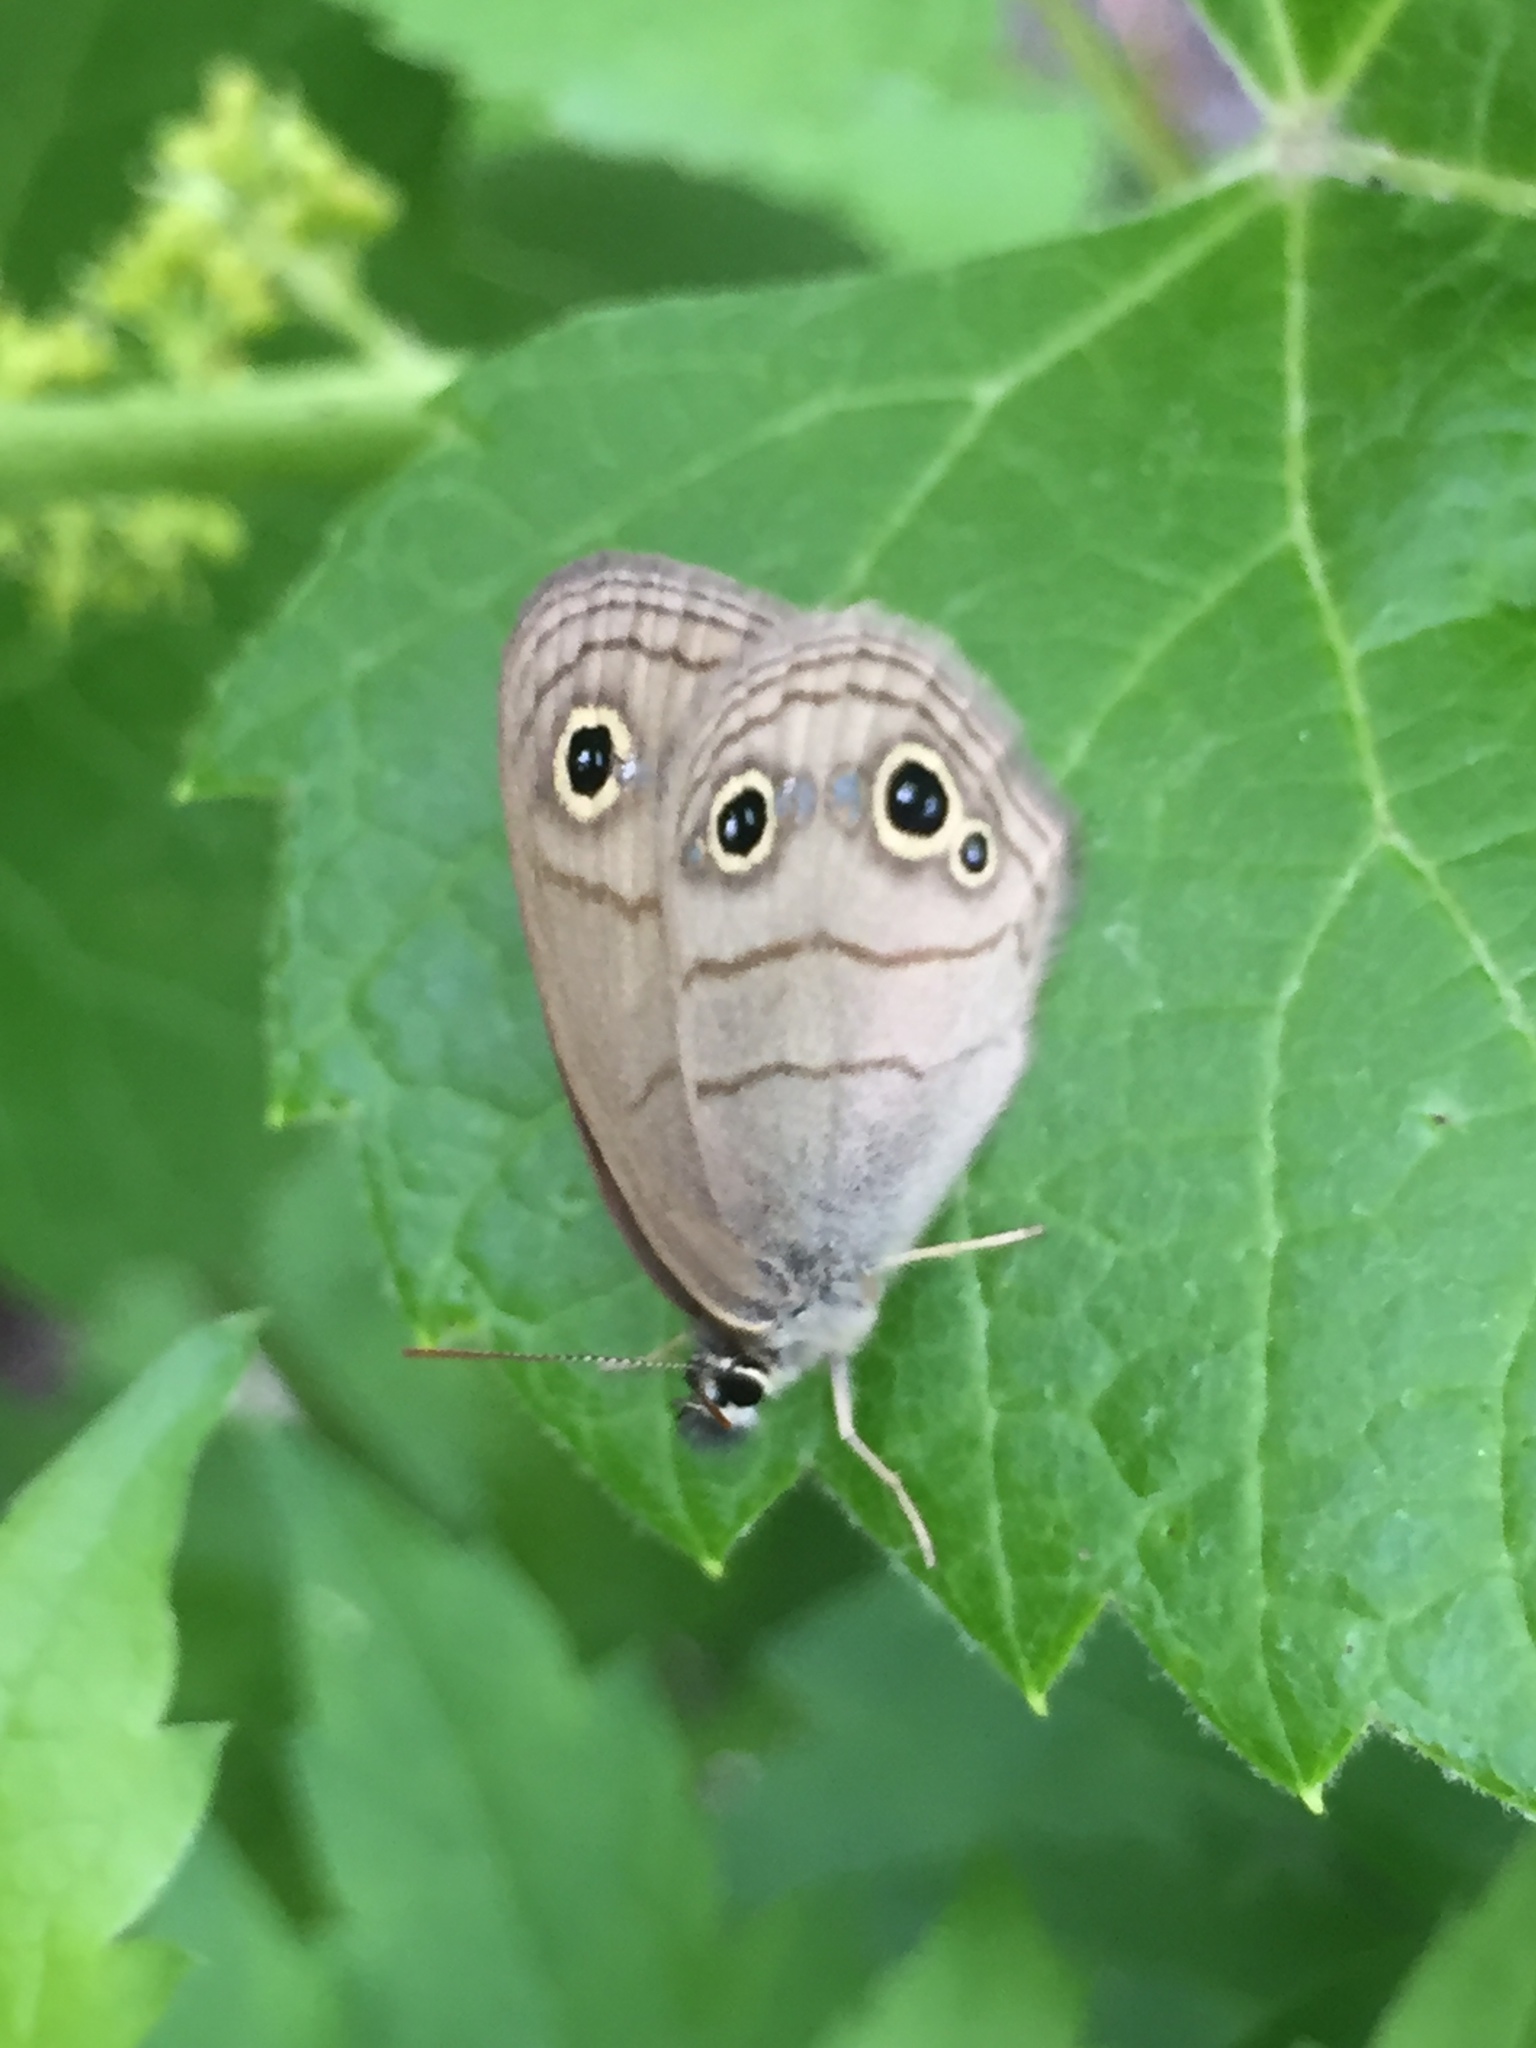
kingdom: Animalia
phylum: Arthropoda
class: Insecta
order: Lepidoptera
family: Nymphalidae
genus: Euptychia
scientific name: Euptychia cymela
